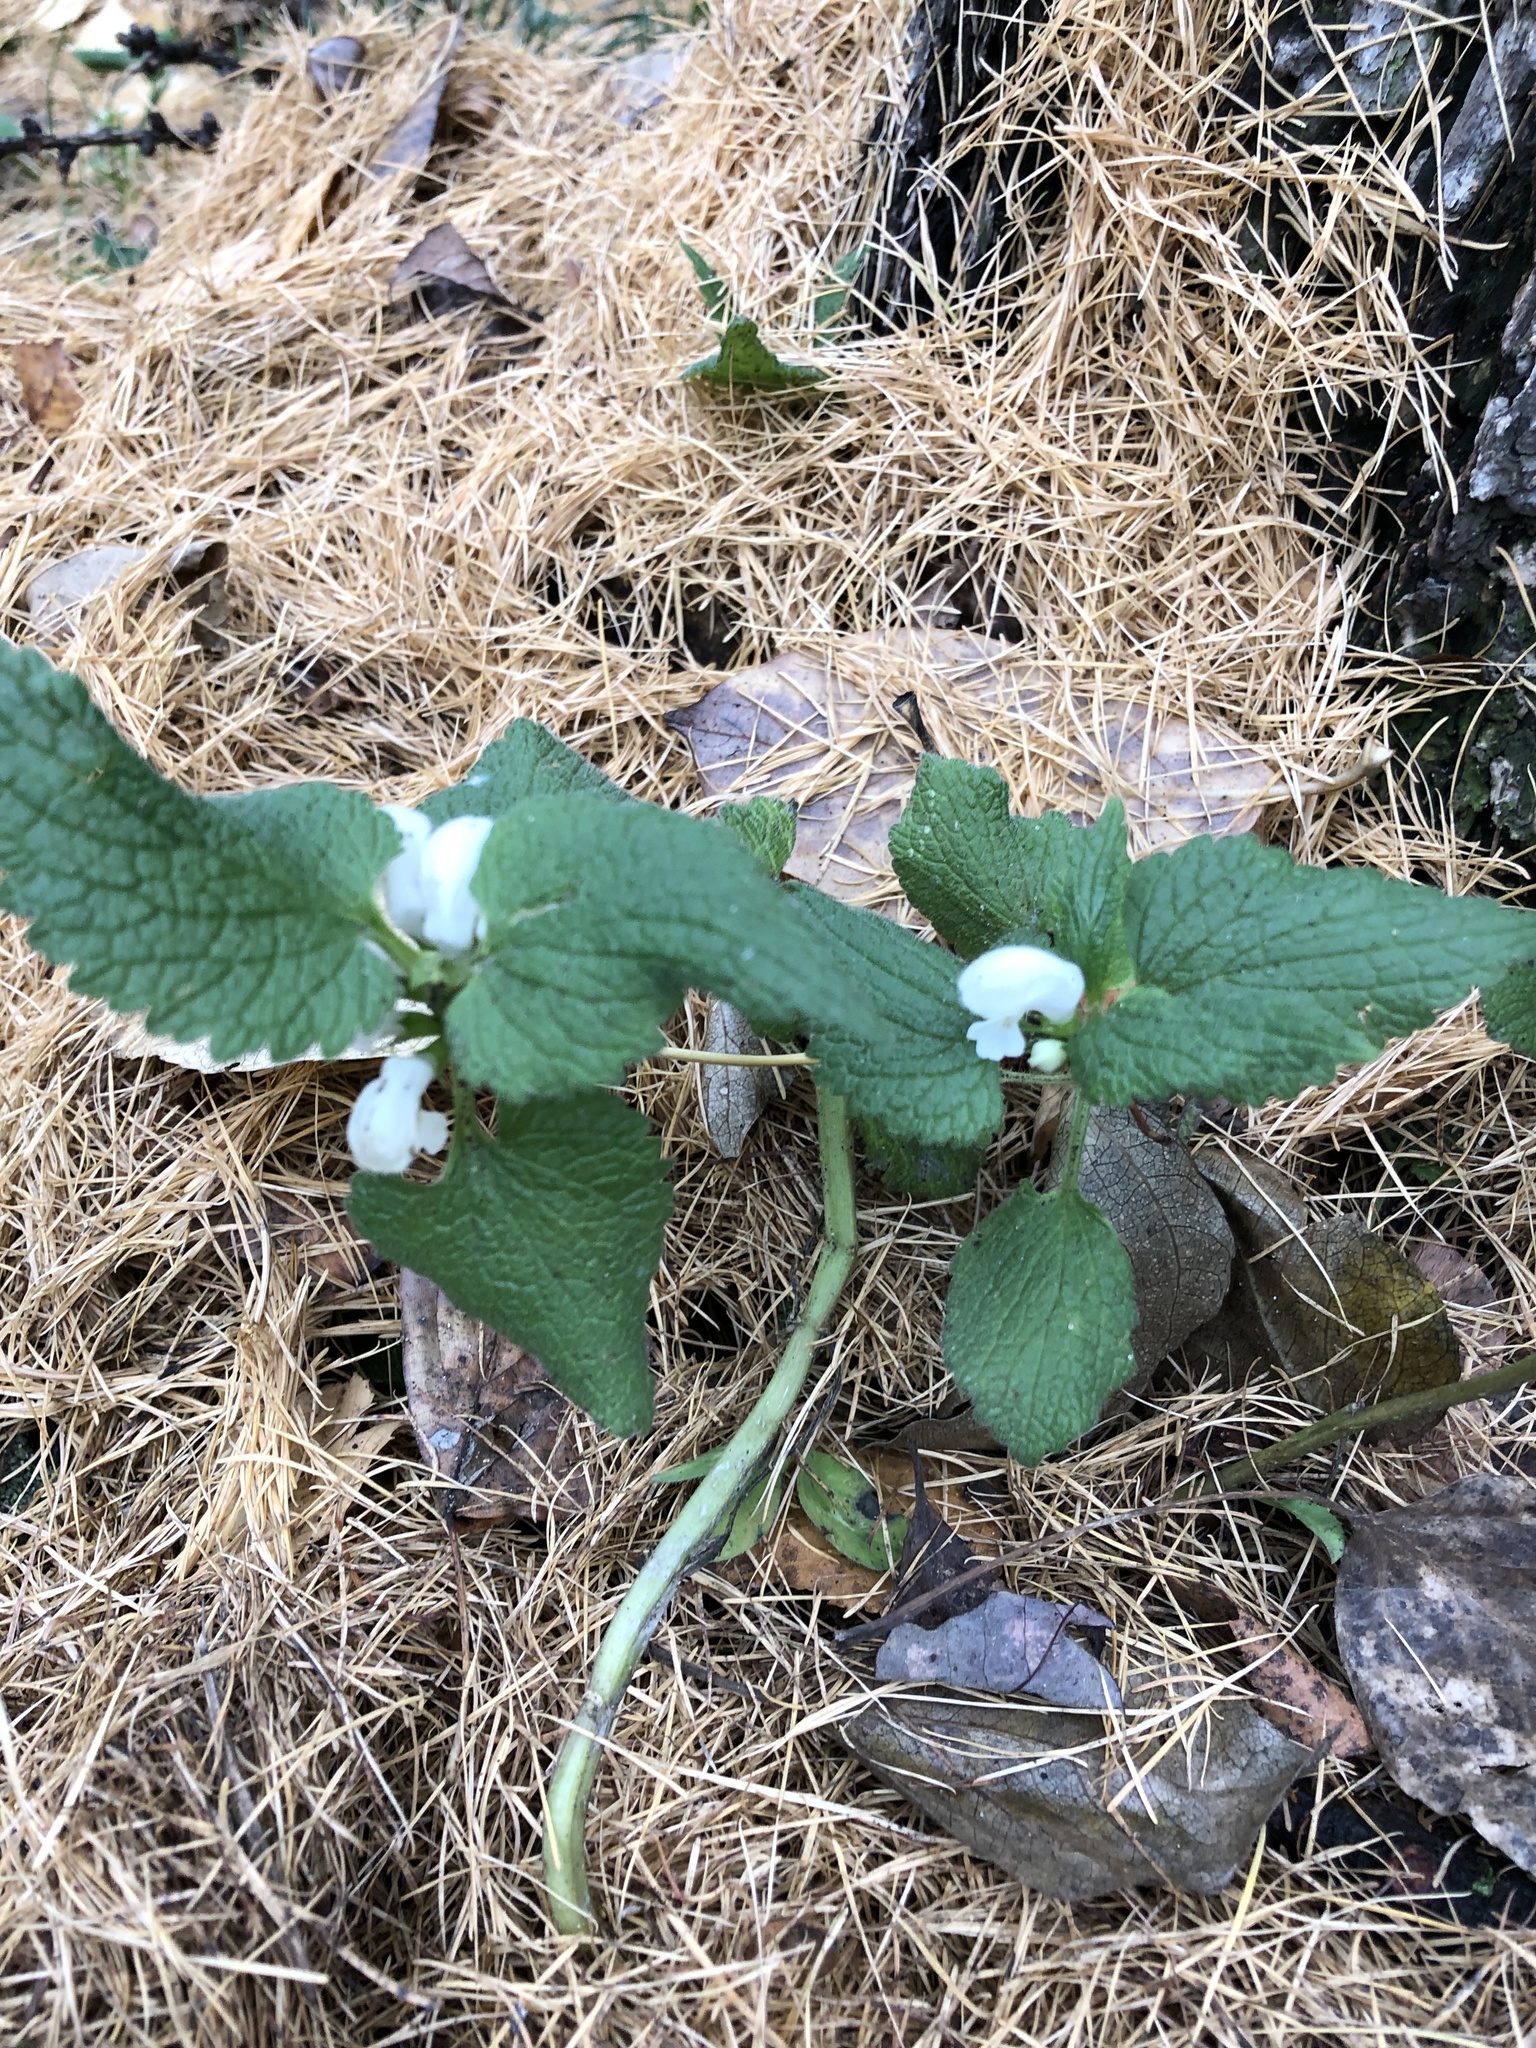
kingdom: Plantae
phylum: Tracheophyta
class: Magnoliopsida
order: Lamiales
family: Lamiaceae
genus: Lamium
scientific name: Lamium album
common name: White dead-nettle
